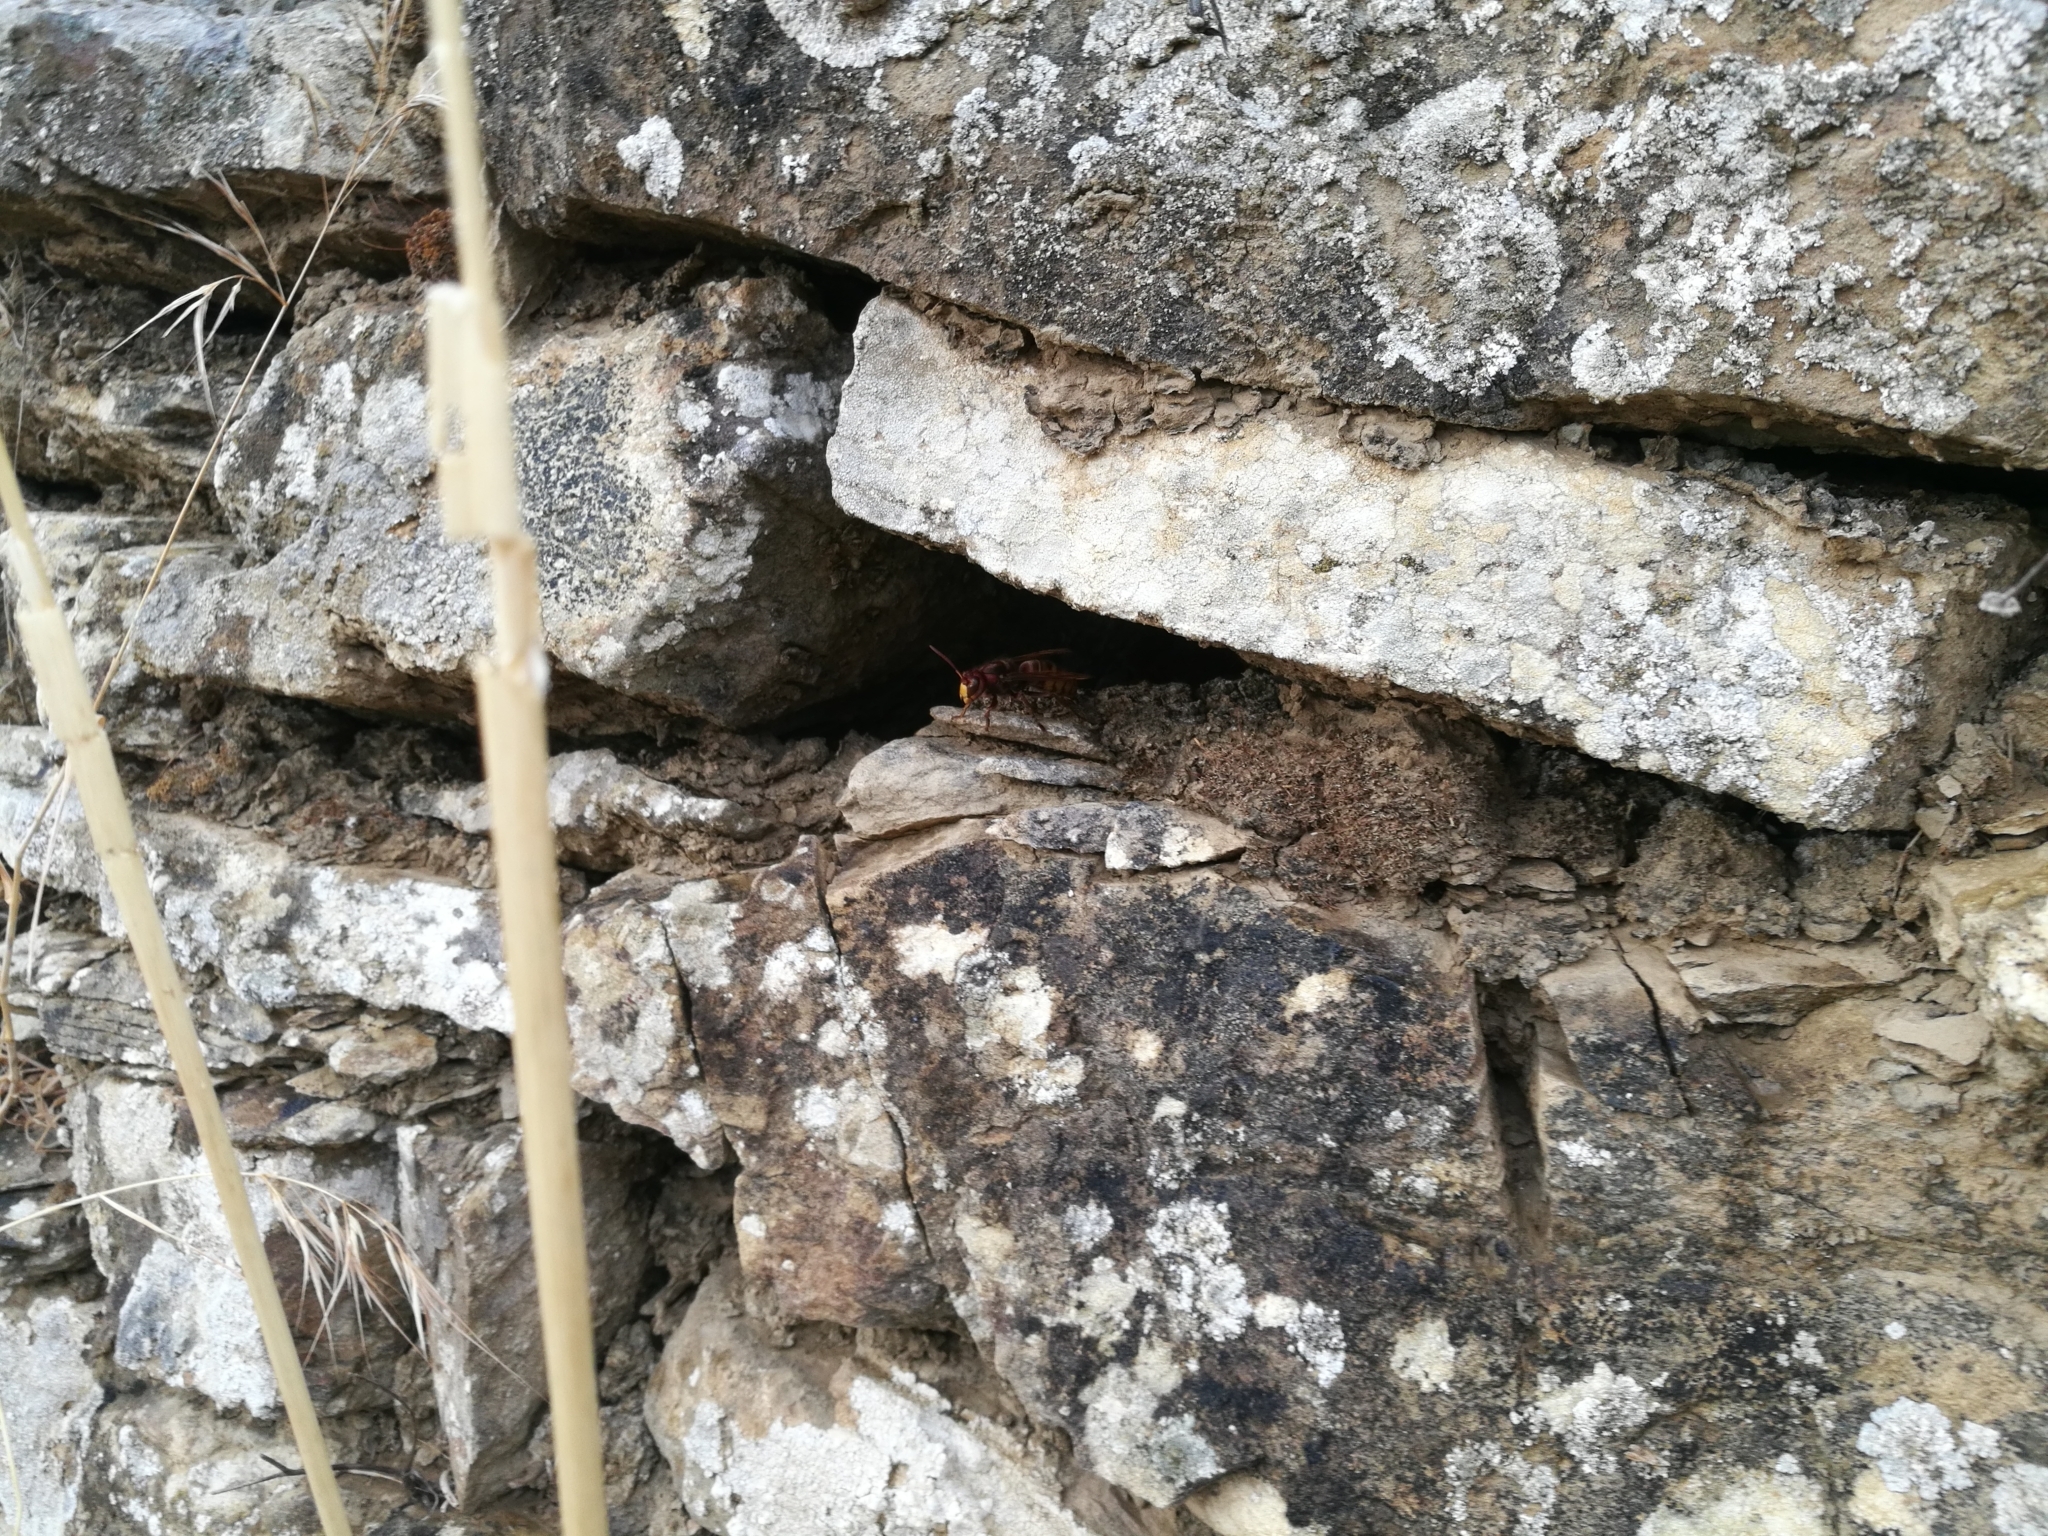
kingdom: Animalia
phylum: Arthropoda
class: Insecta
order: Hymenoptera
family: Vespidae
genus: Vespa
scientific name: Vespa crabro
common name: Hornet
